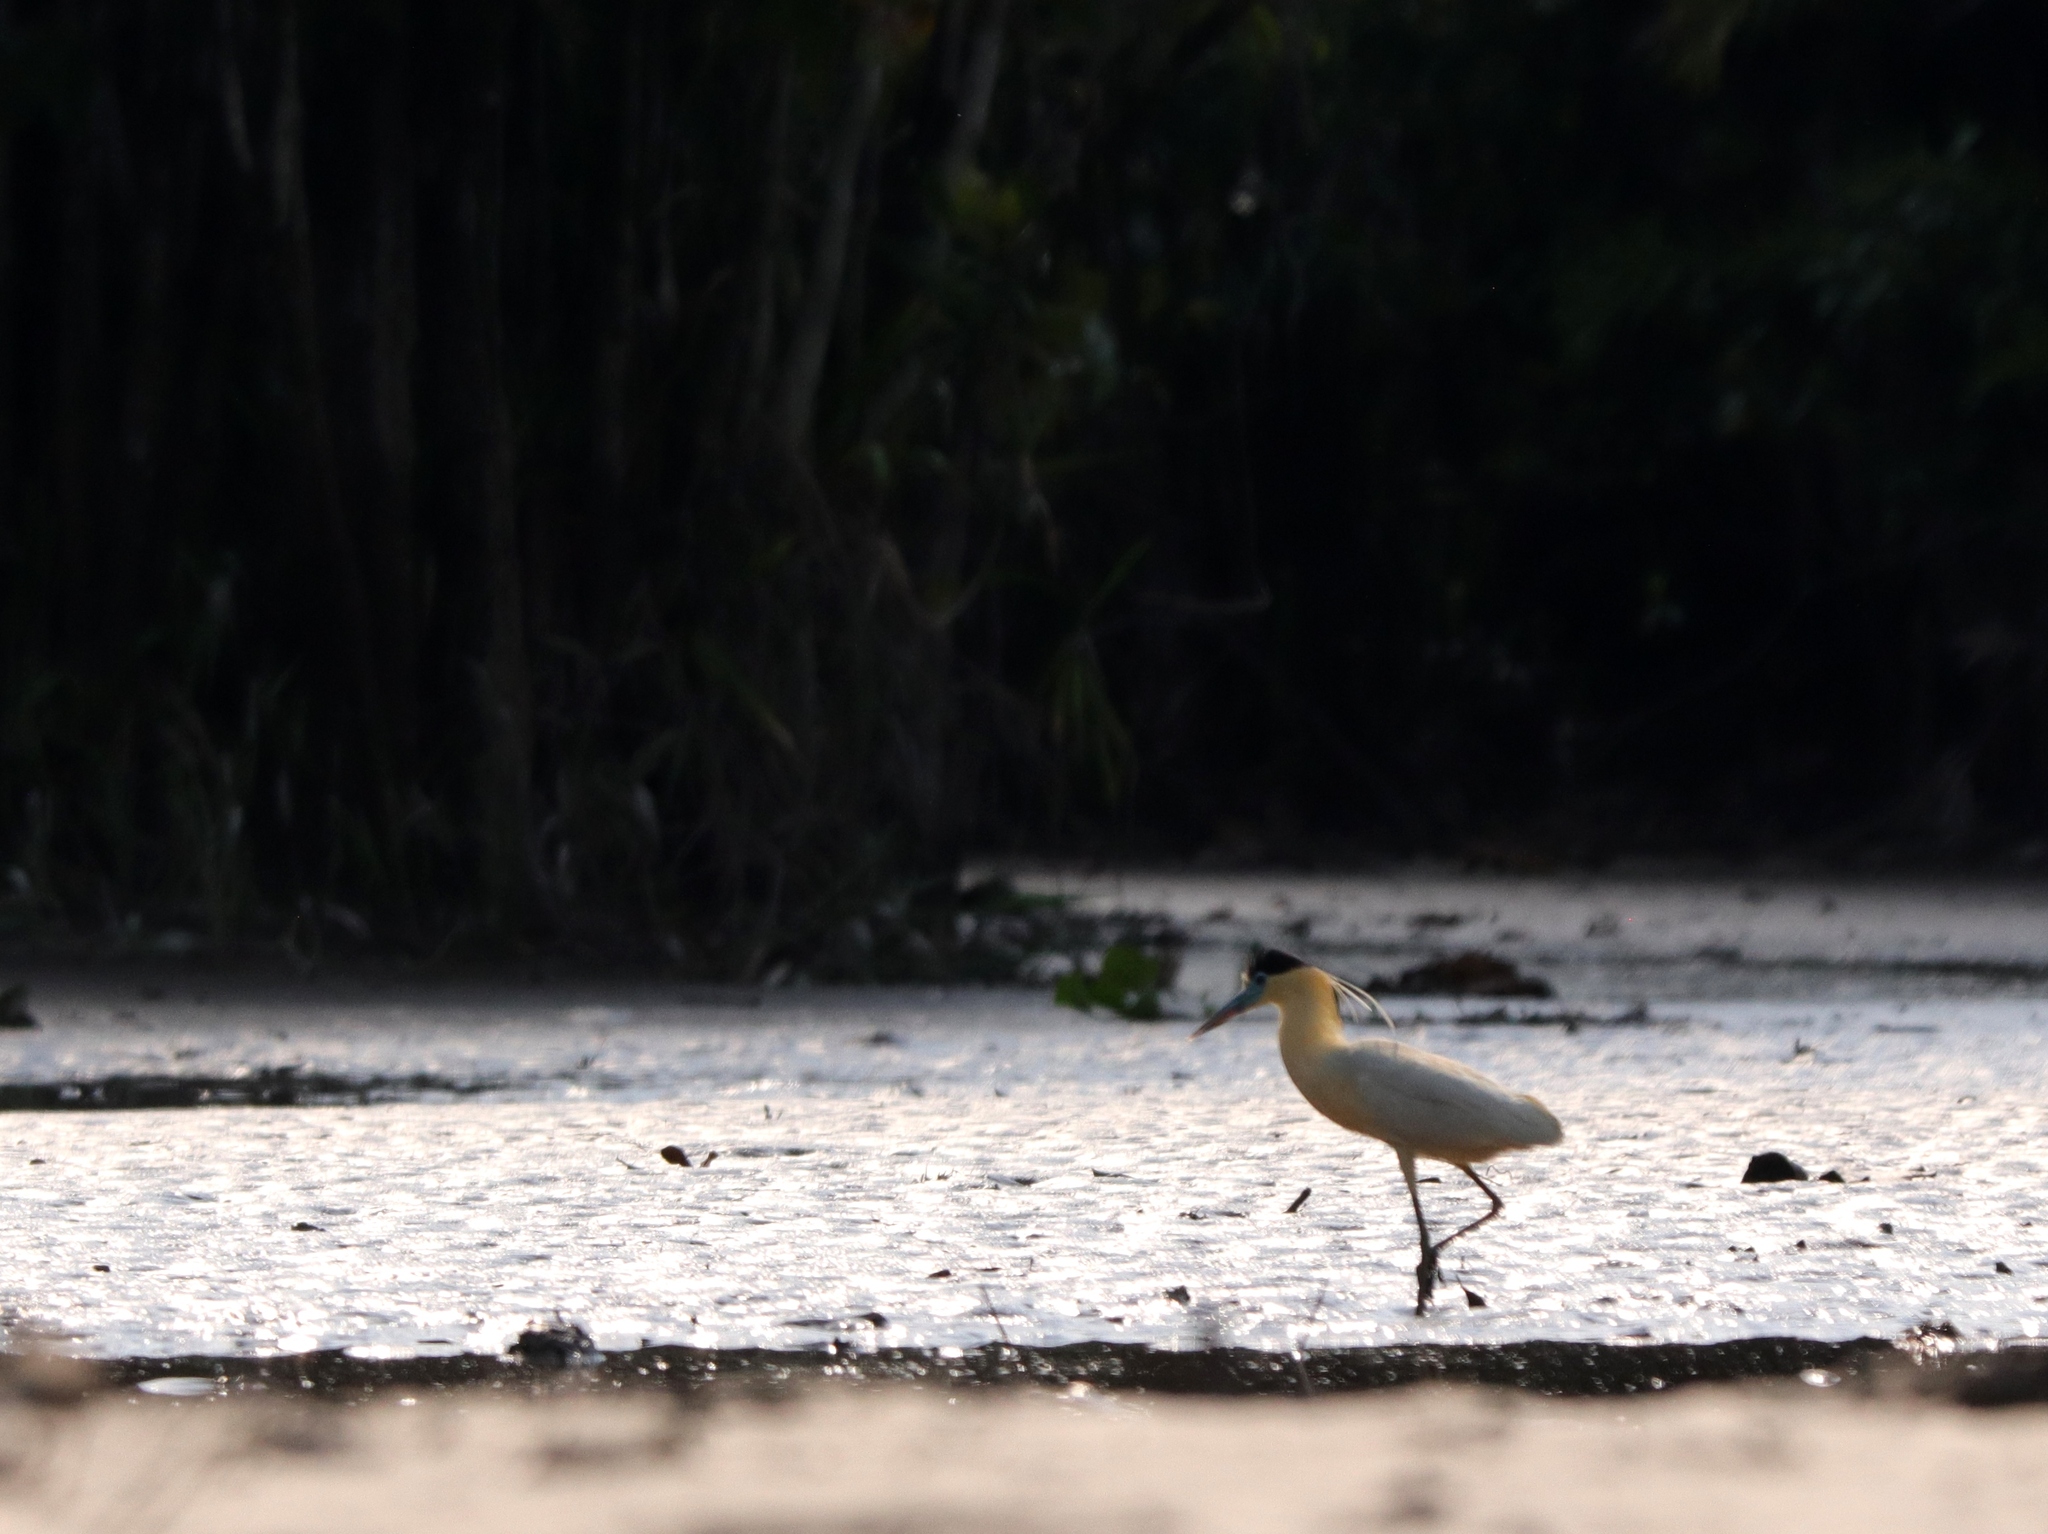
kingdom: Animalia
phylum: Chordata
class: Aves
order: Pelecaniformes
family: Ardeidae
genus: Pilherodius
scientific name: Pilherodius pileatus
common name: Capped heron
